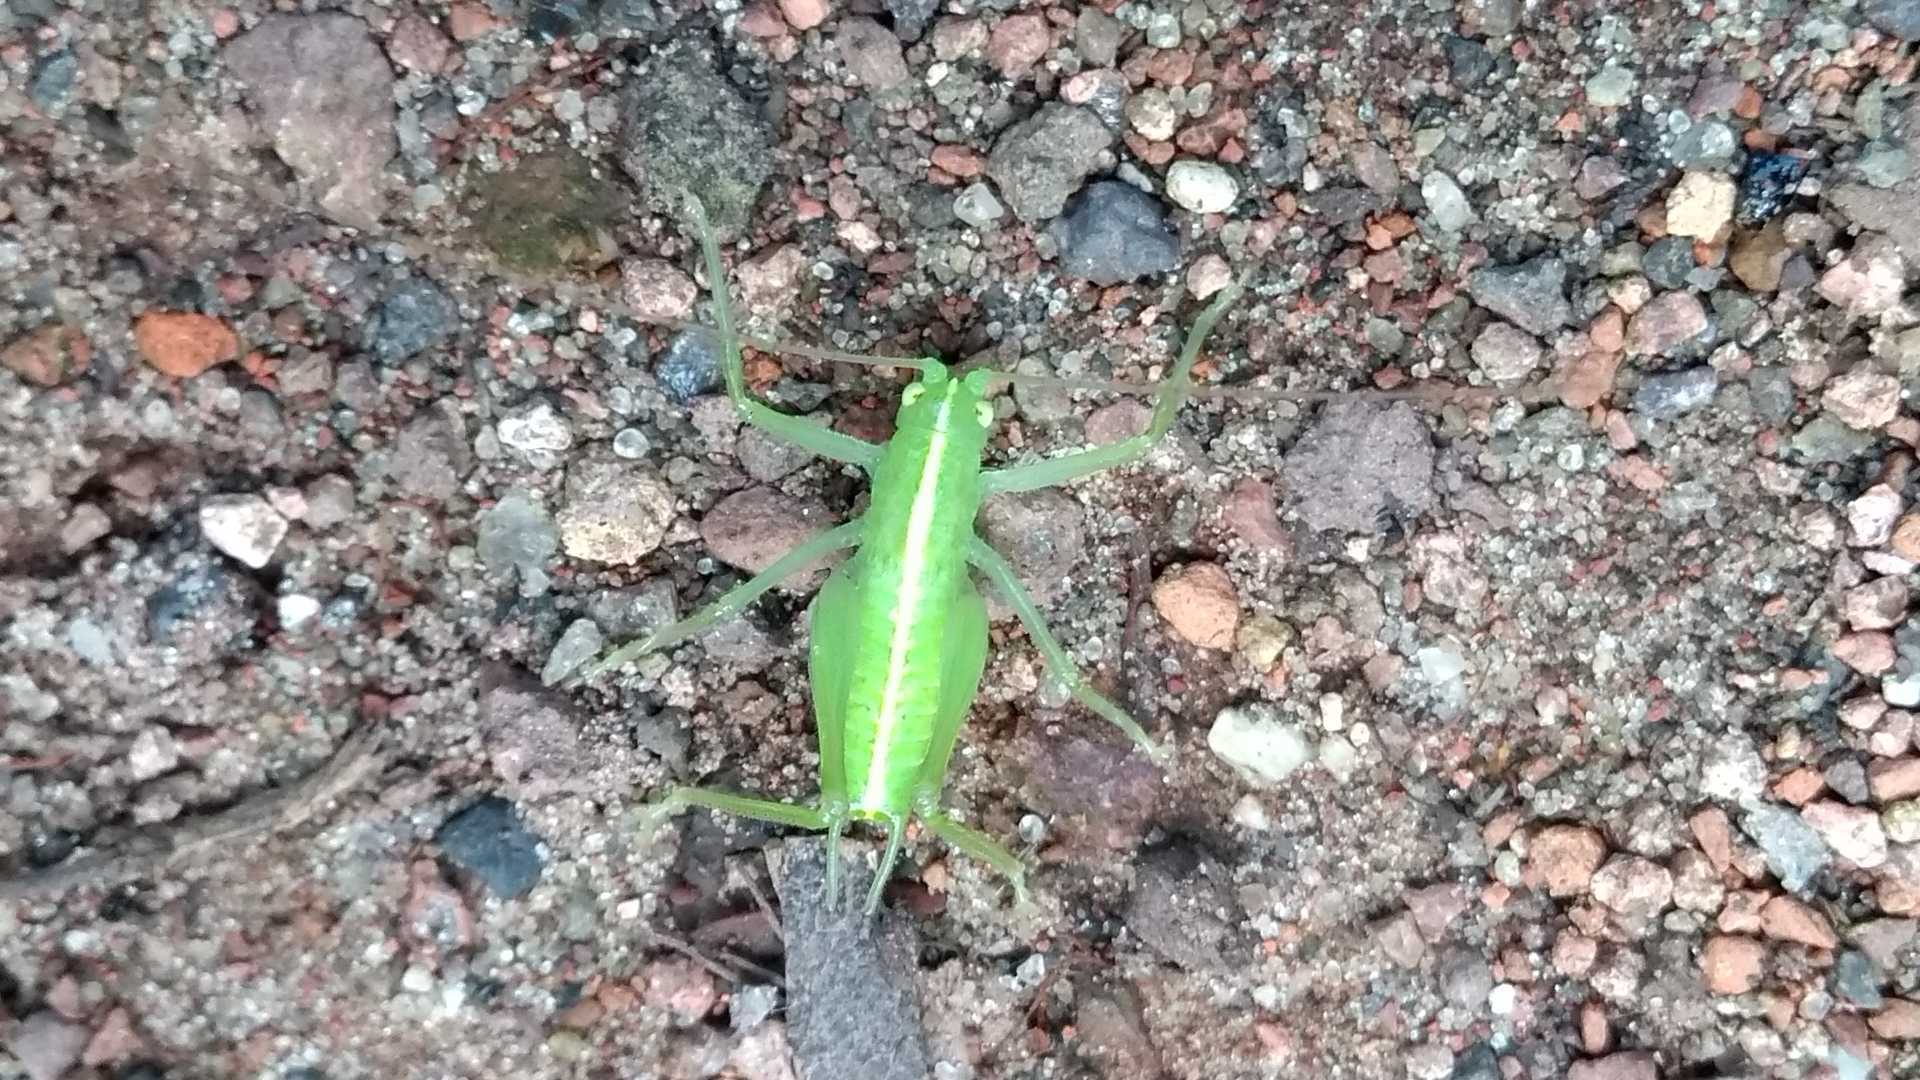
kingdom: Animalia
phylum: Arthropoda
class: Insecta
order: Orthoptera
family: Tettigoniidae
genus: Meconema
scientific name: Meconema meridionale
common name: Southern oak bush-cricket
